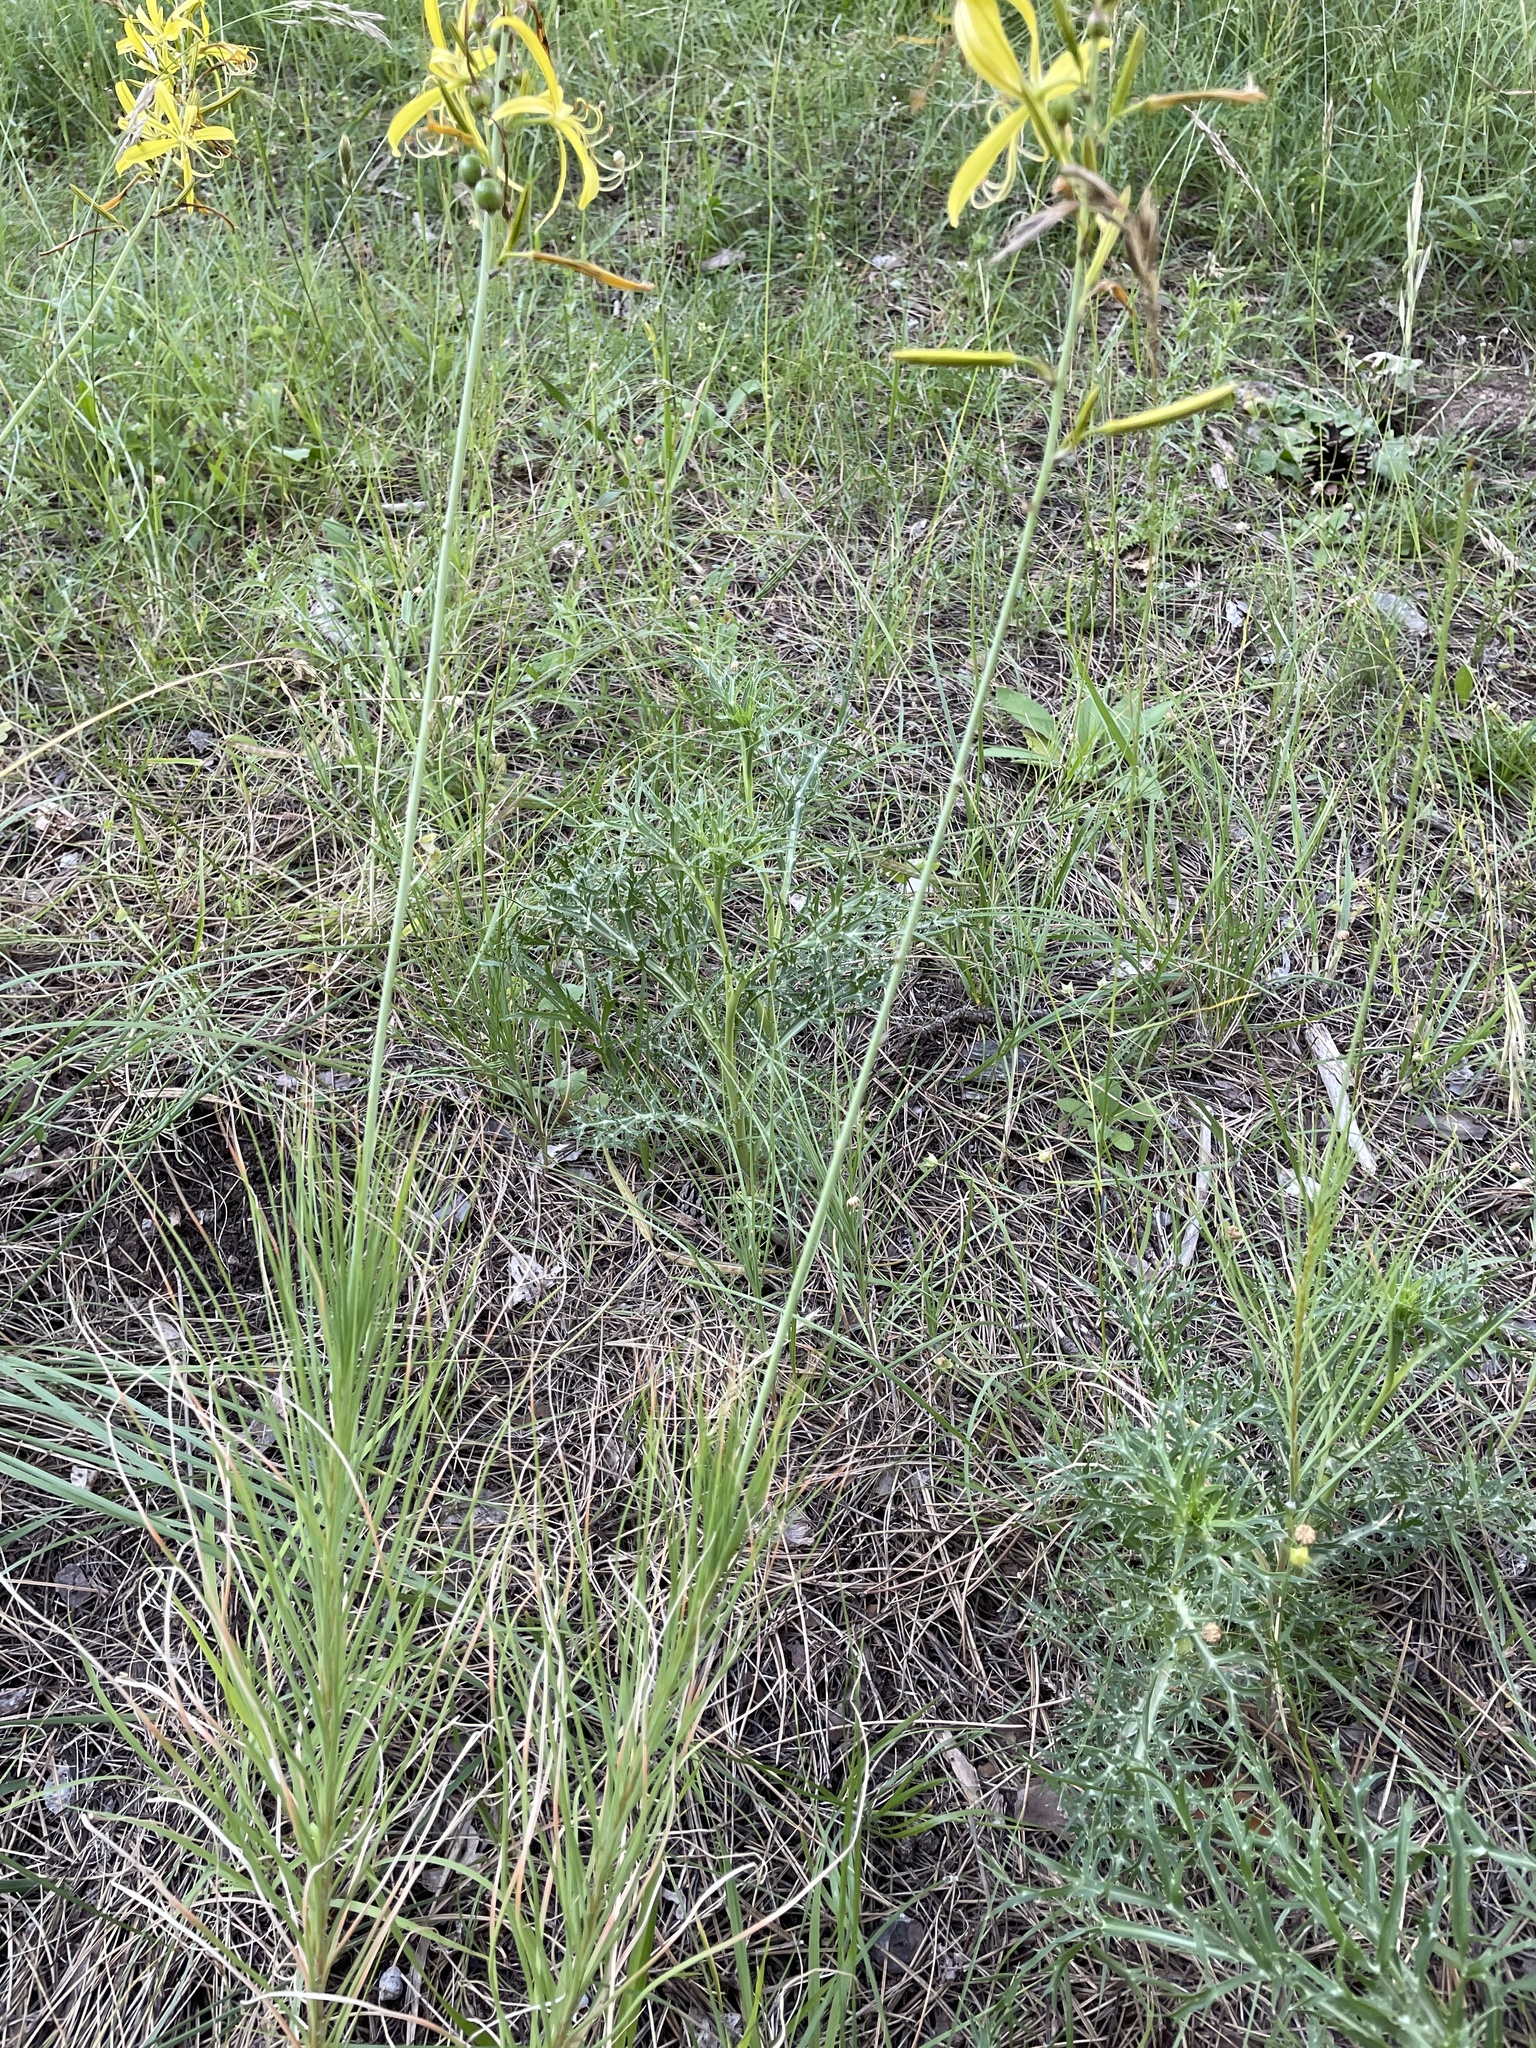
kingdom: Plantae
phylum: Tracheophyta
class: Liliopsida
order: Asparagales
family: Asphodelaceae
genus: Asphodeline
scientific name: Asphodeline liburnica
